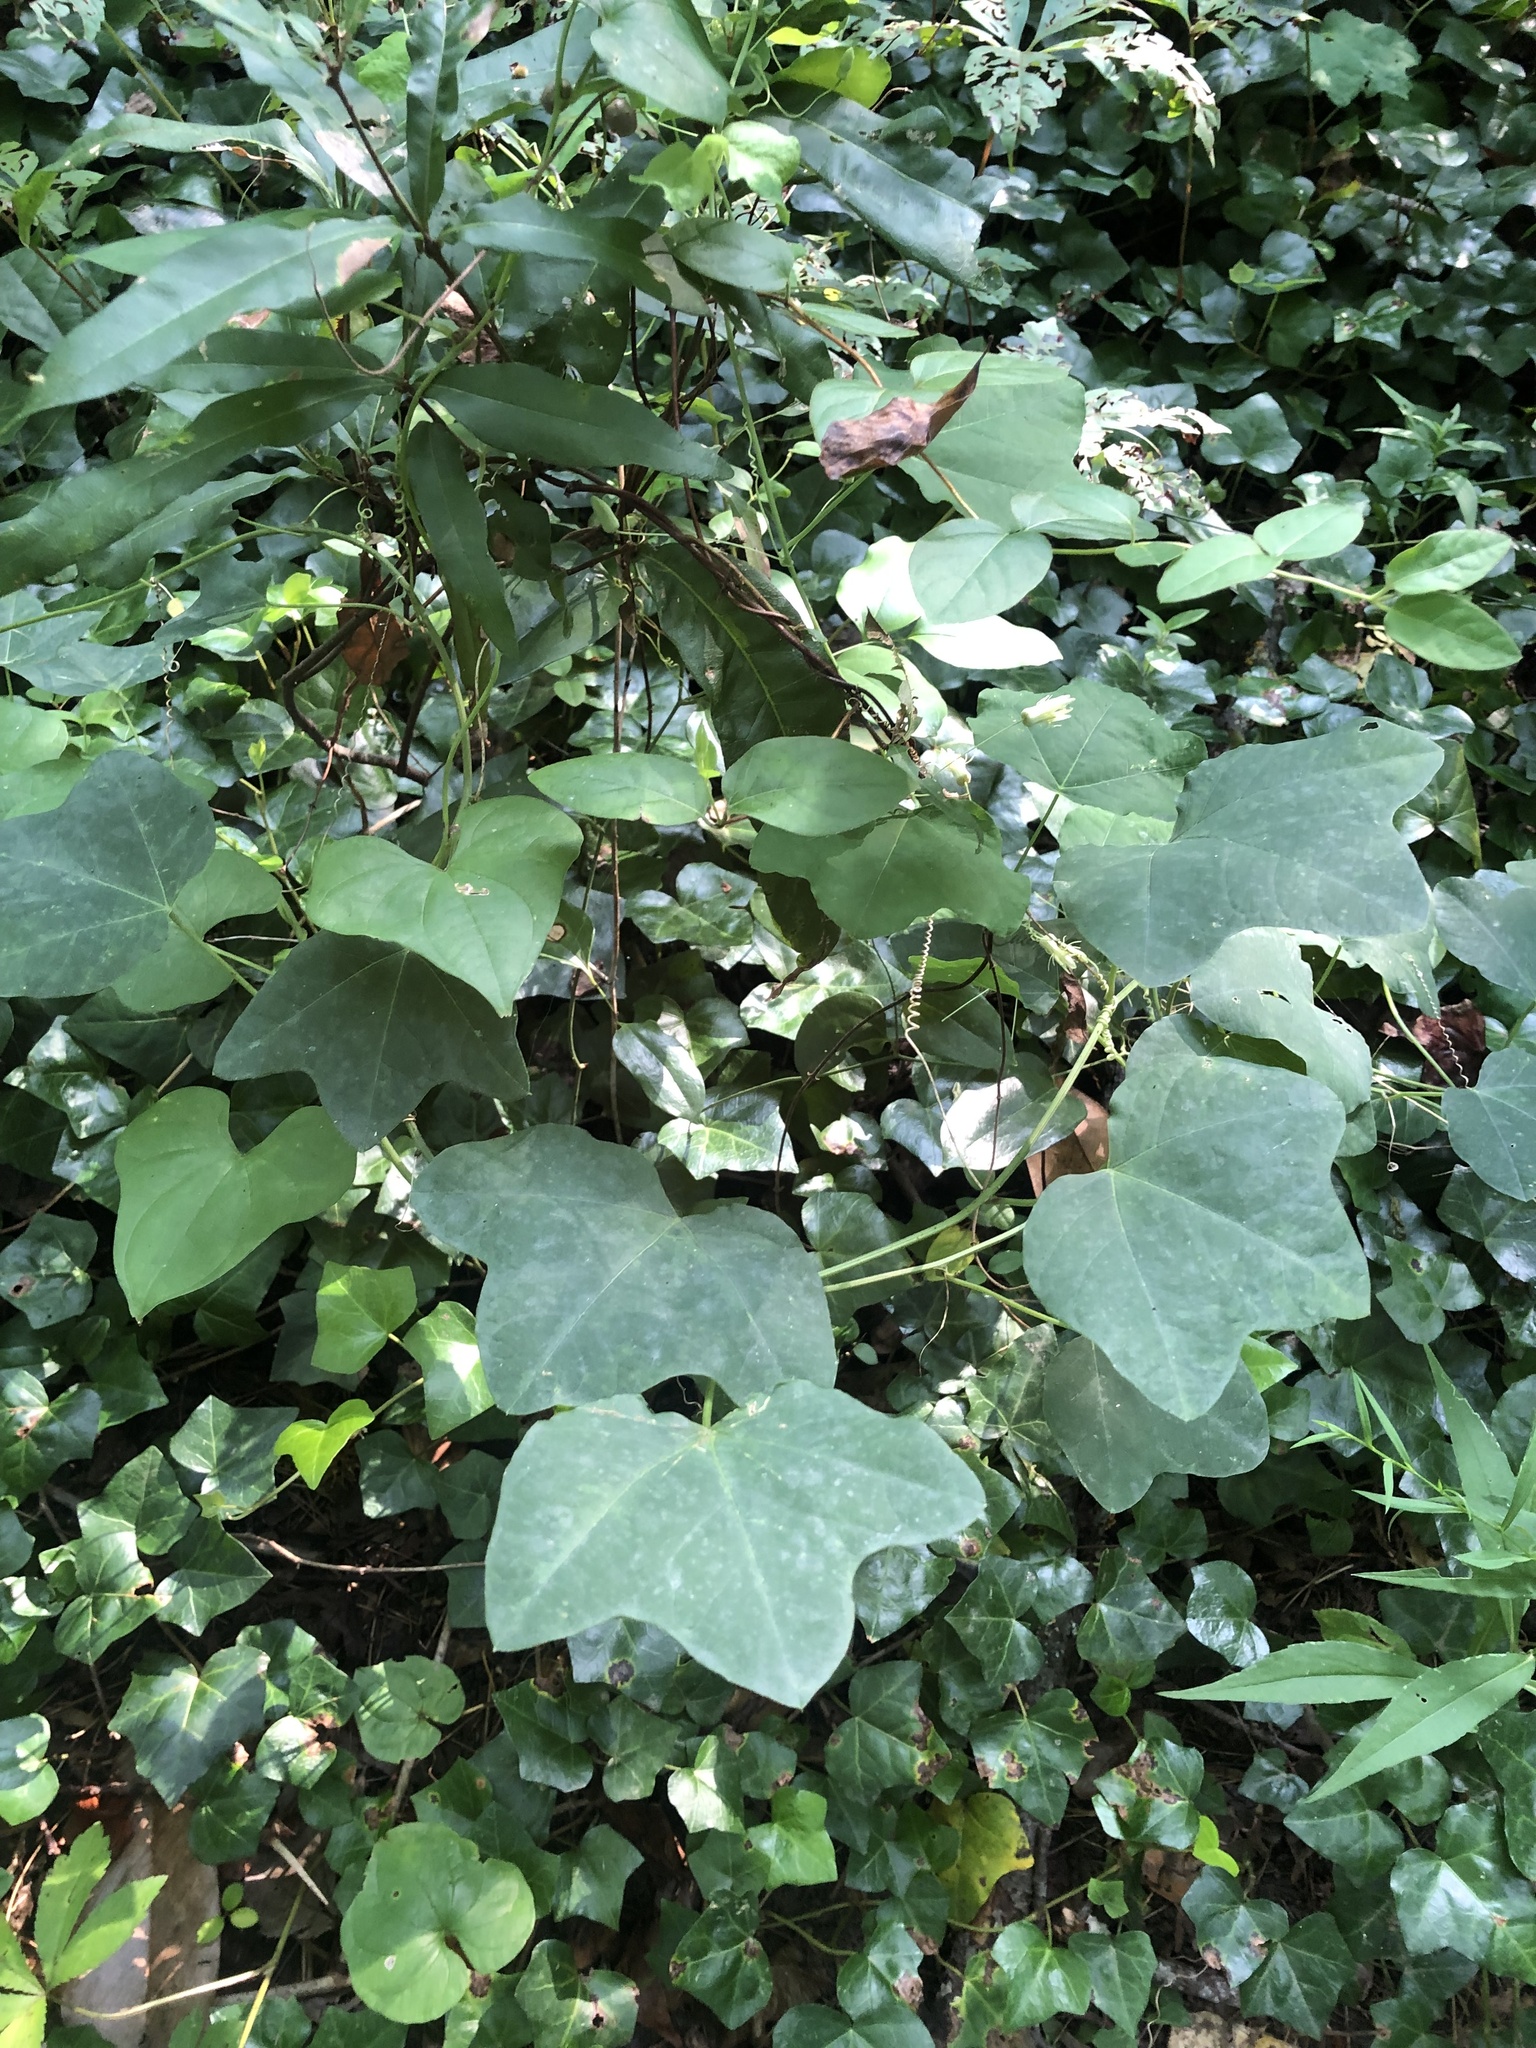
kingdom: Plantae
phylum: Tracheophyta
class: Magnoliopsida
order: Malpighiales
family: Passifloraceae
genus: Passiflora
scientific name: Passiflora lutea
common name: Yellow passionflower
